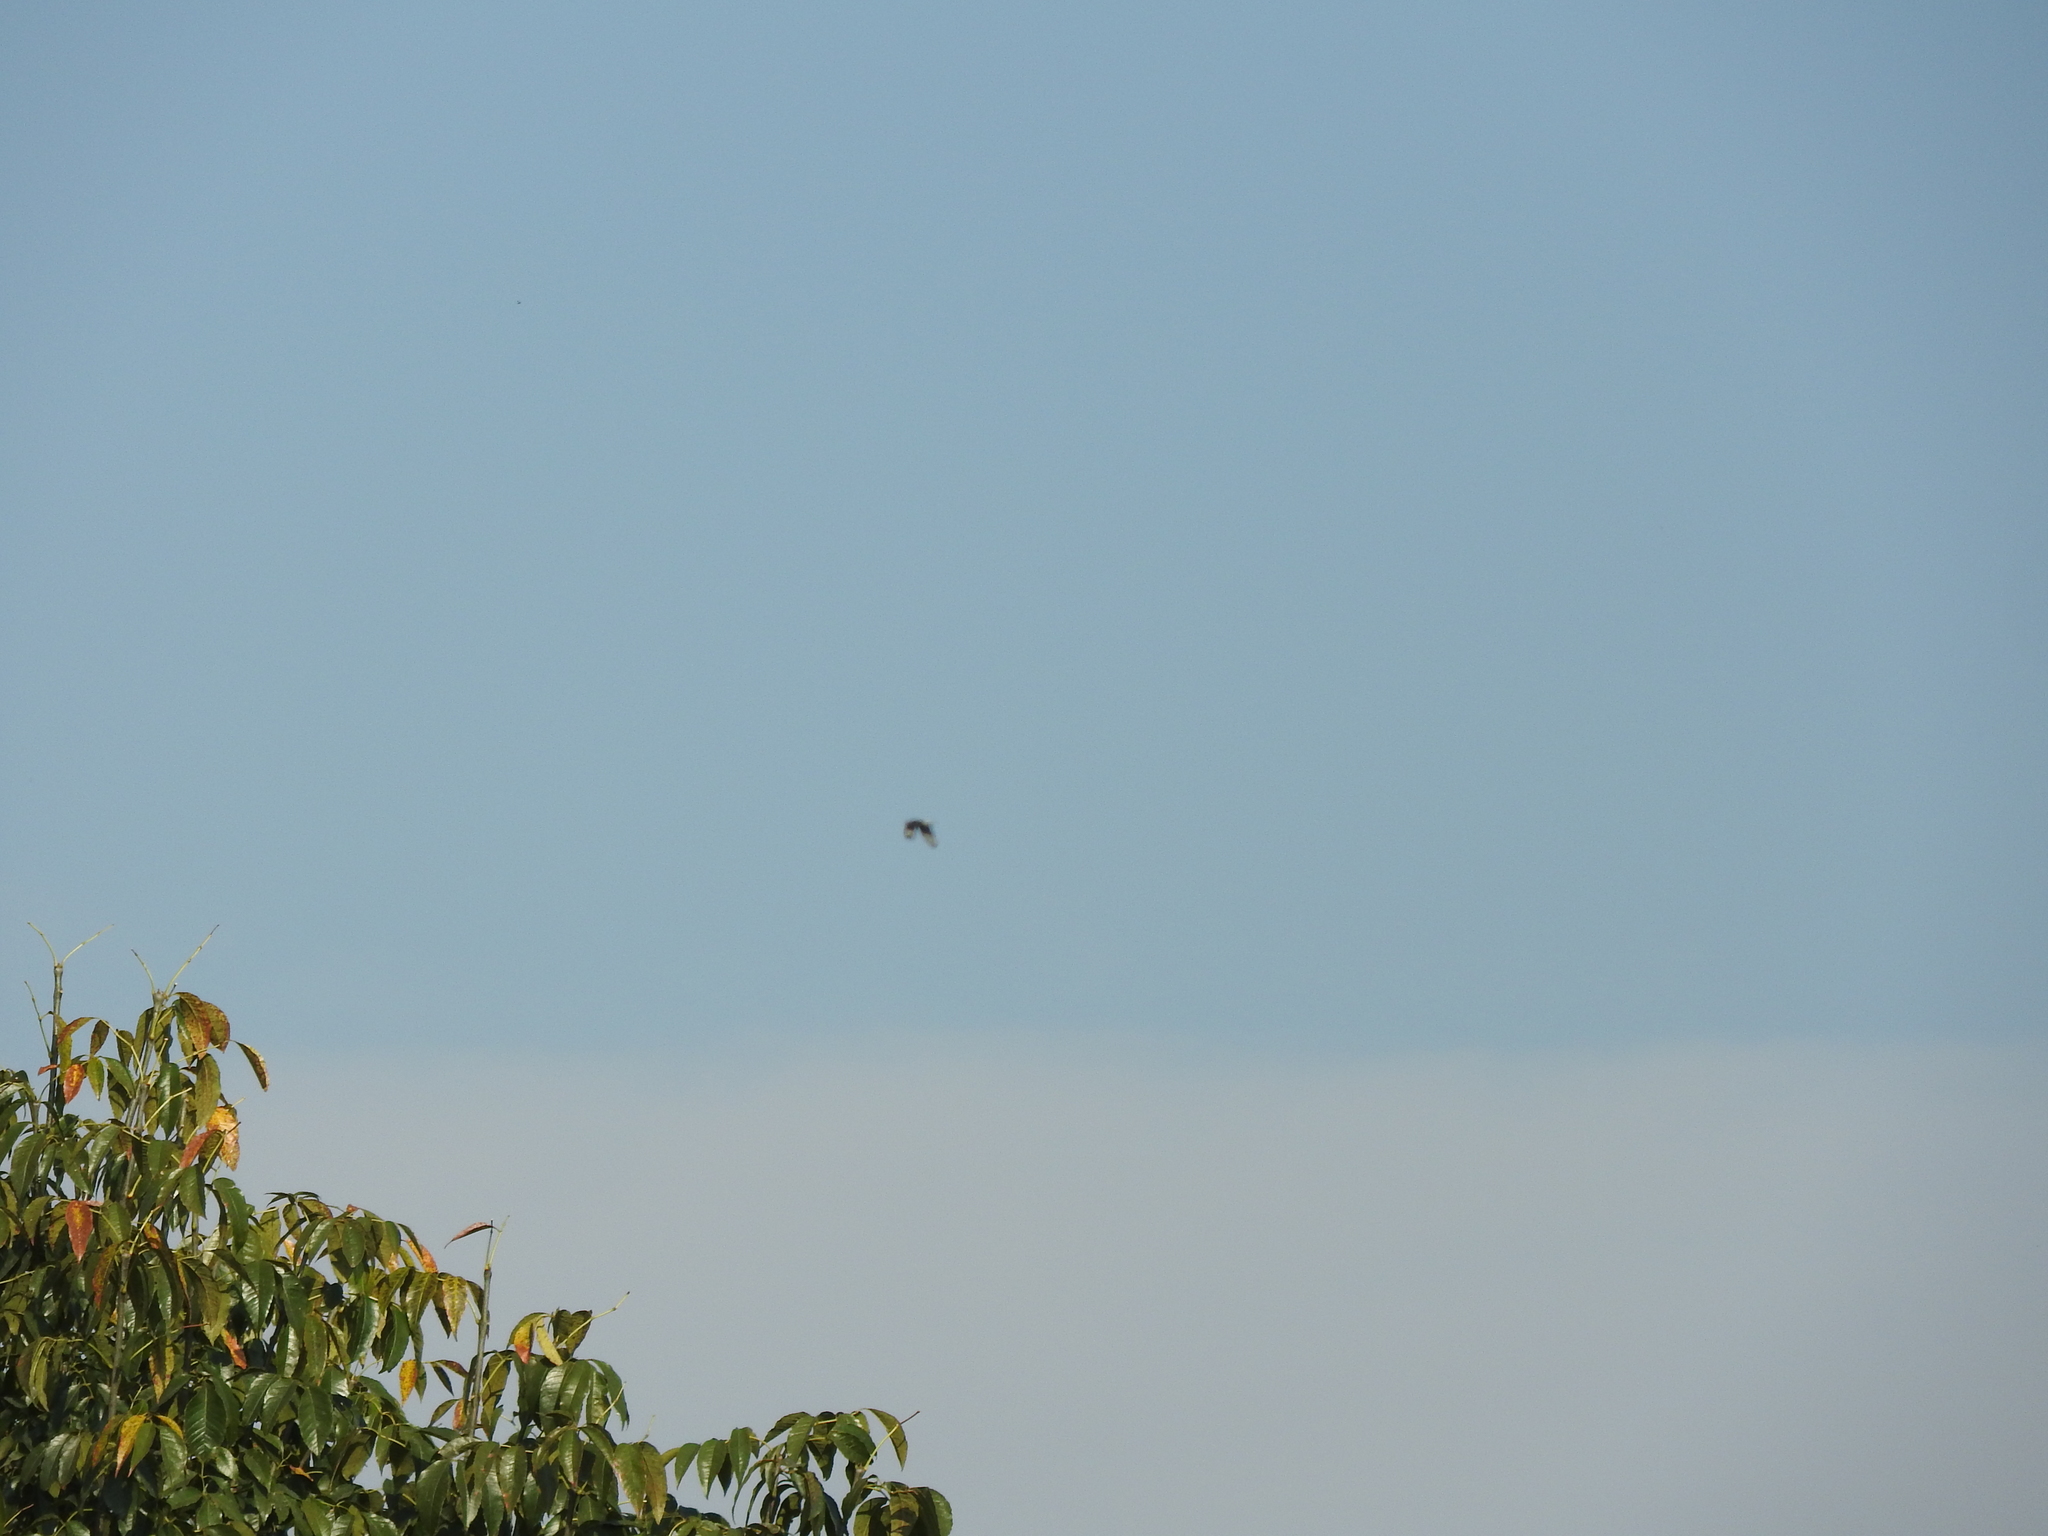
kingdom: Animalia
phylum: Chordata
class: Aves
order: Falconiformes
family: Falconidae
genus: Caracara
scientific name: Caracara plancus
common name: Southern caracara
